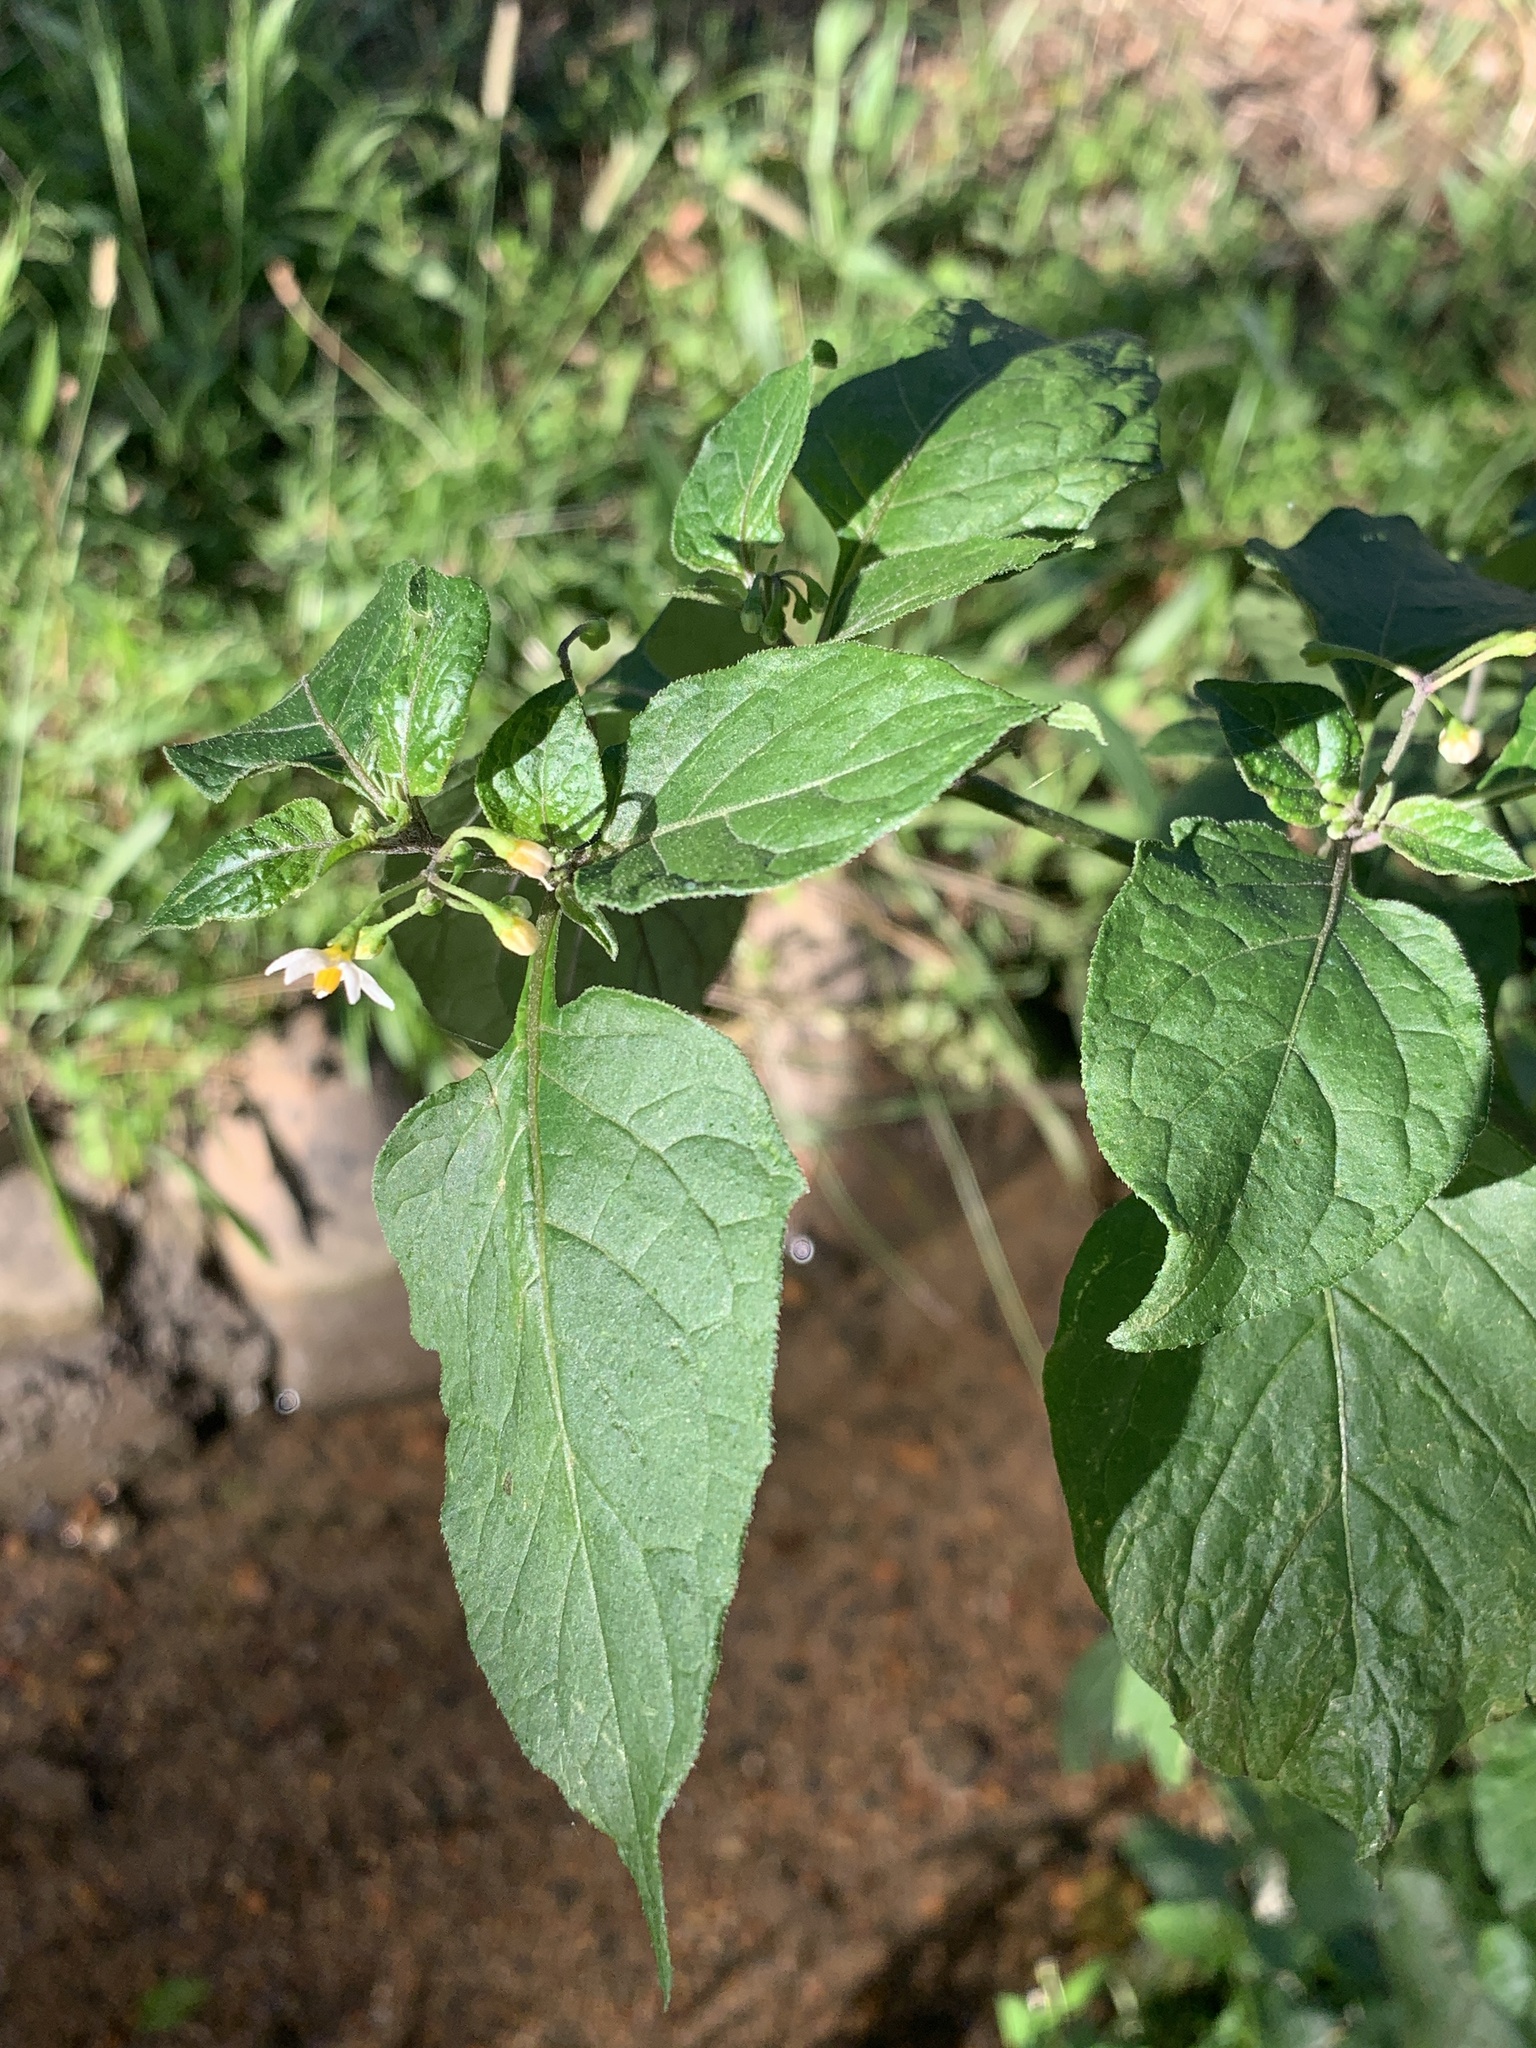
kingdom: Plantae
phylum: Tracheophyta
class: Magnoliopsida
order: Solanales
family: Solanaceae
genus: Solanum
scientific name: Solanum nigrum
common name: Black nightshade
